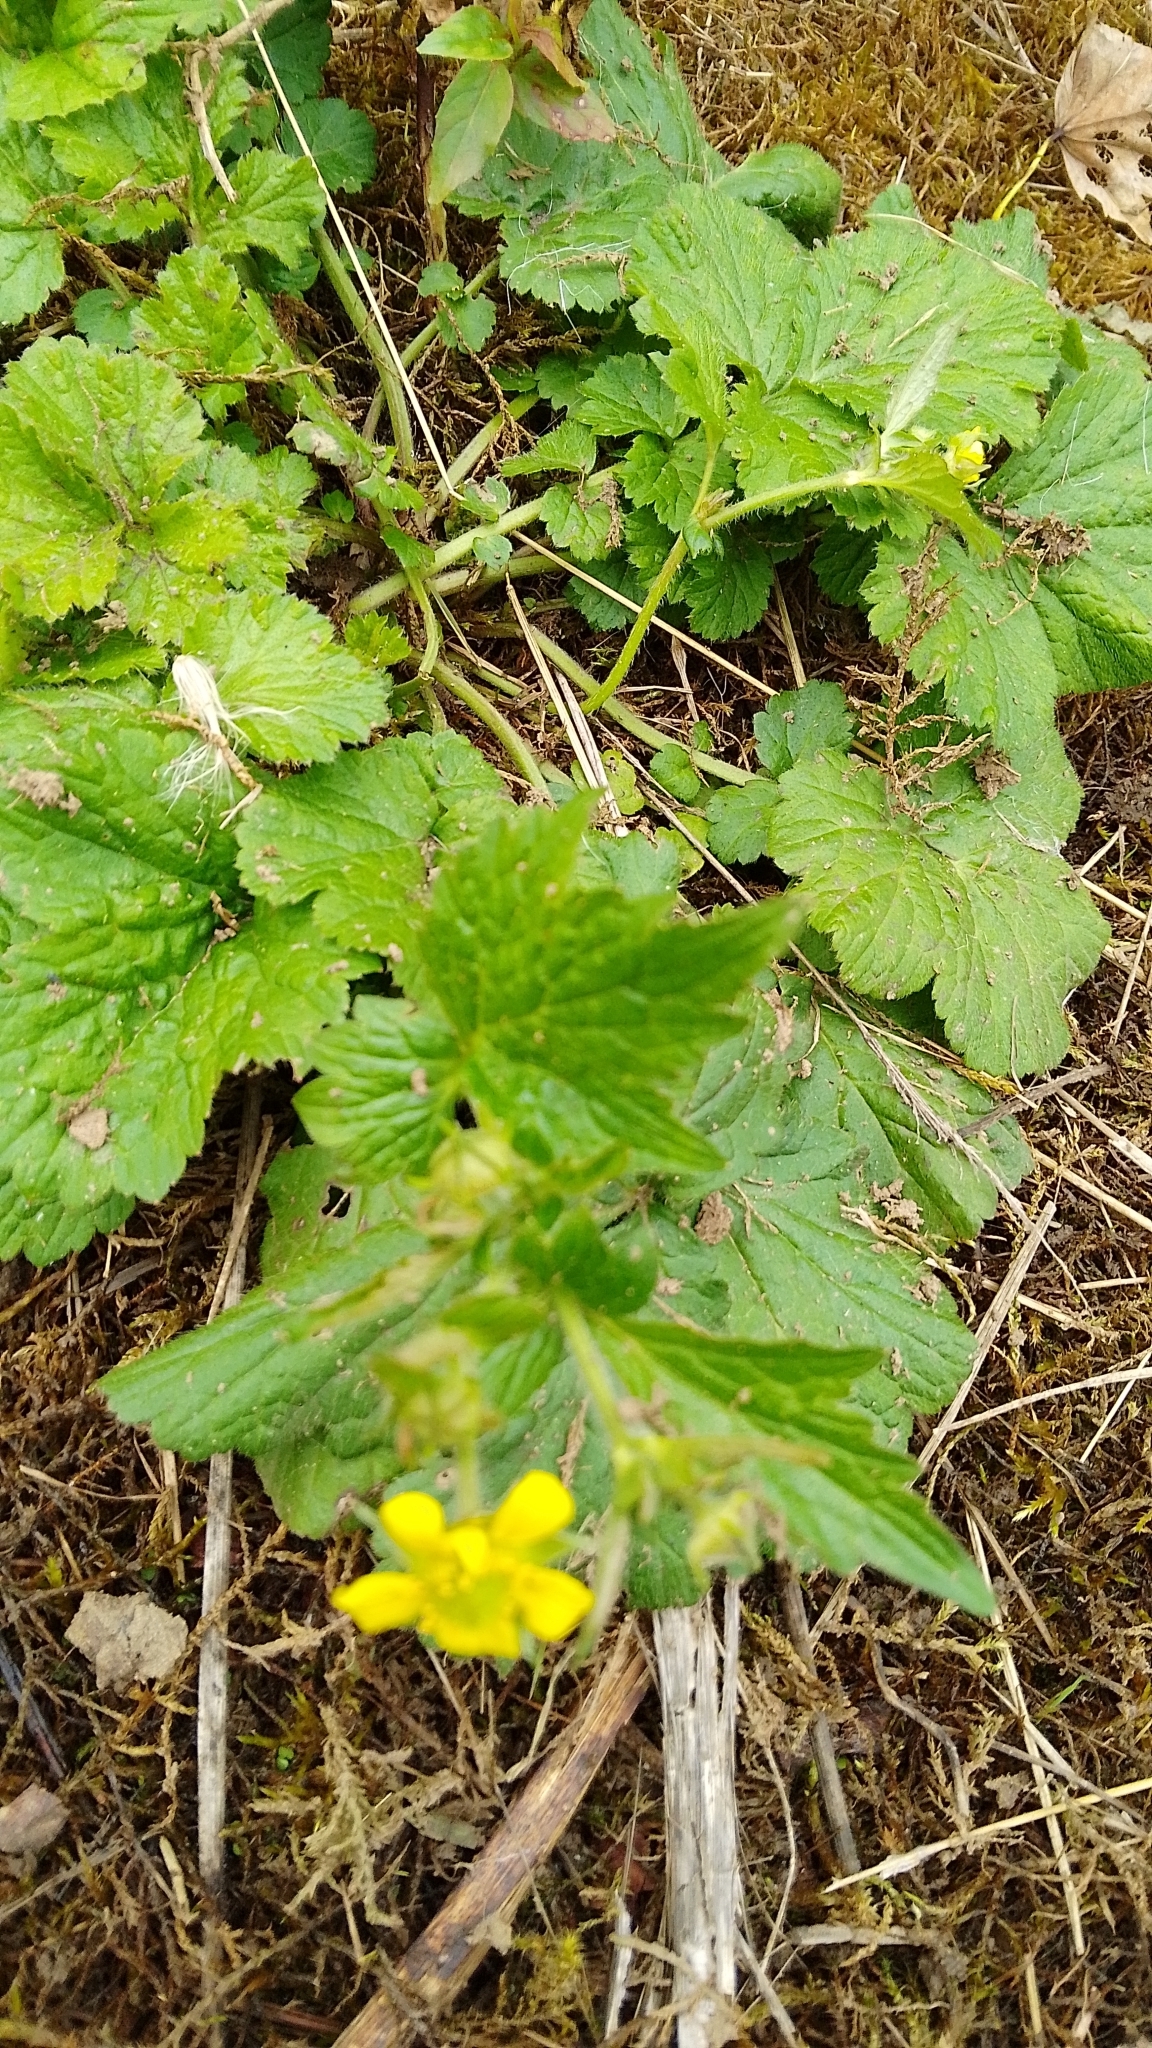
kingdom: Plantae
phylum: Tracheophyta
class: Magnoliopsida
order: Rosales
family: Rosaceae
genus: Geum
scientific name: Geum urbanum
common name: Wood avens
